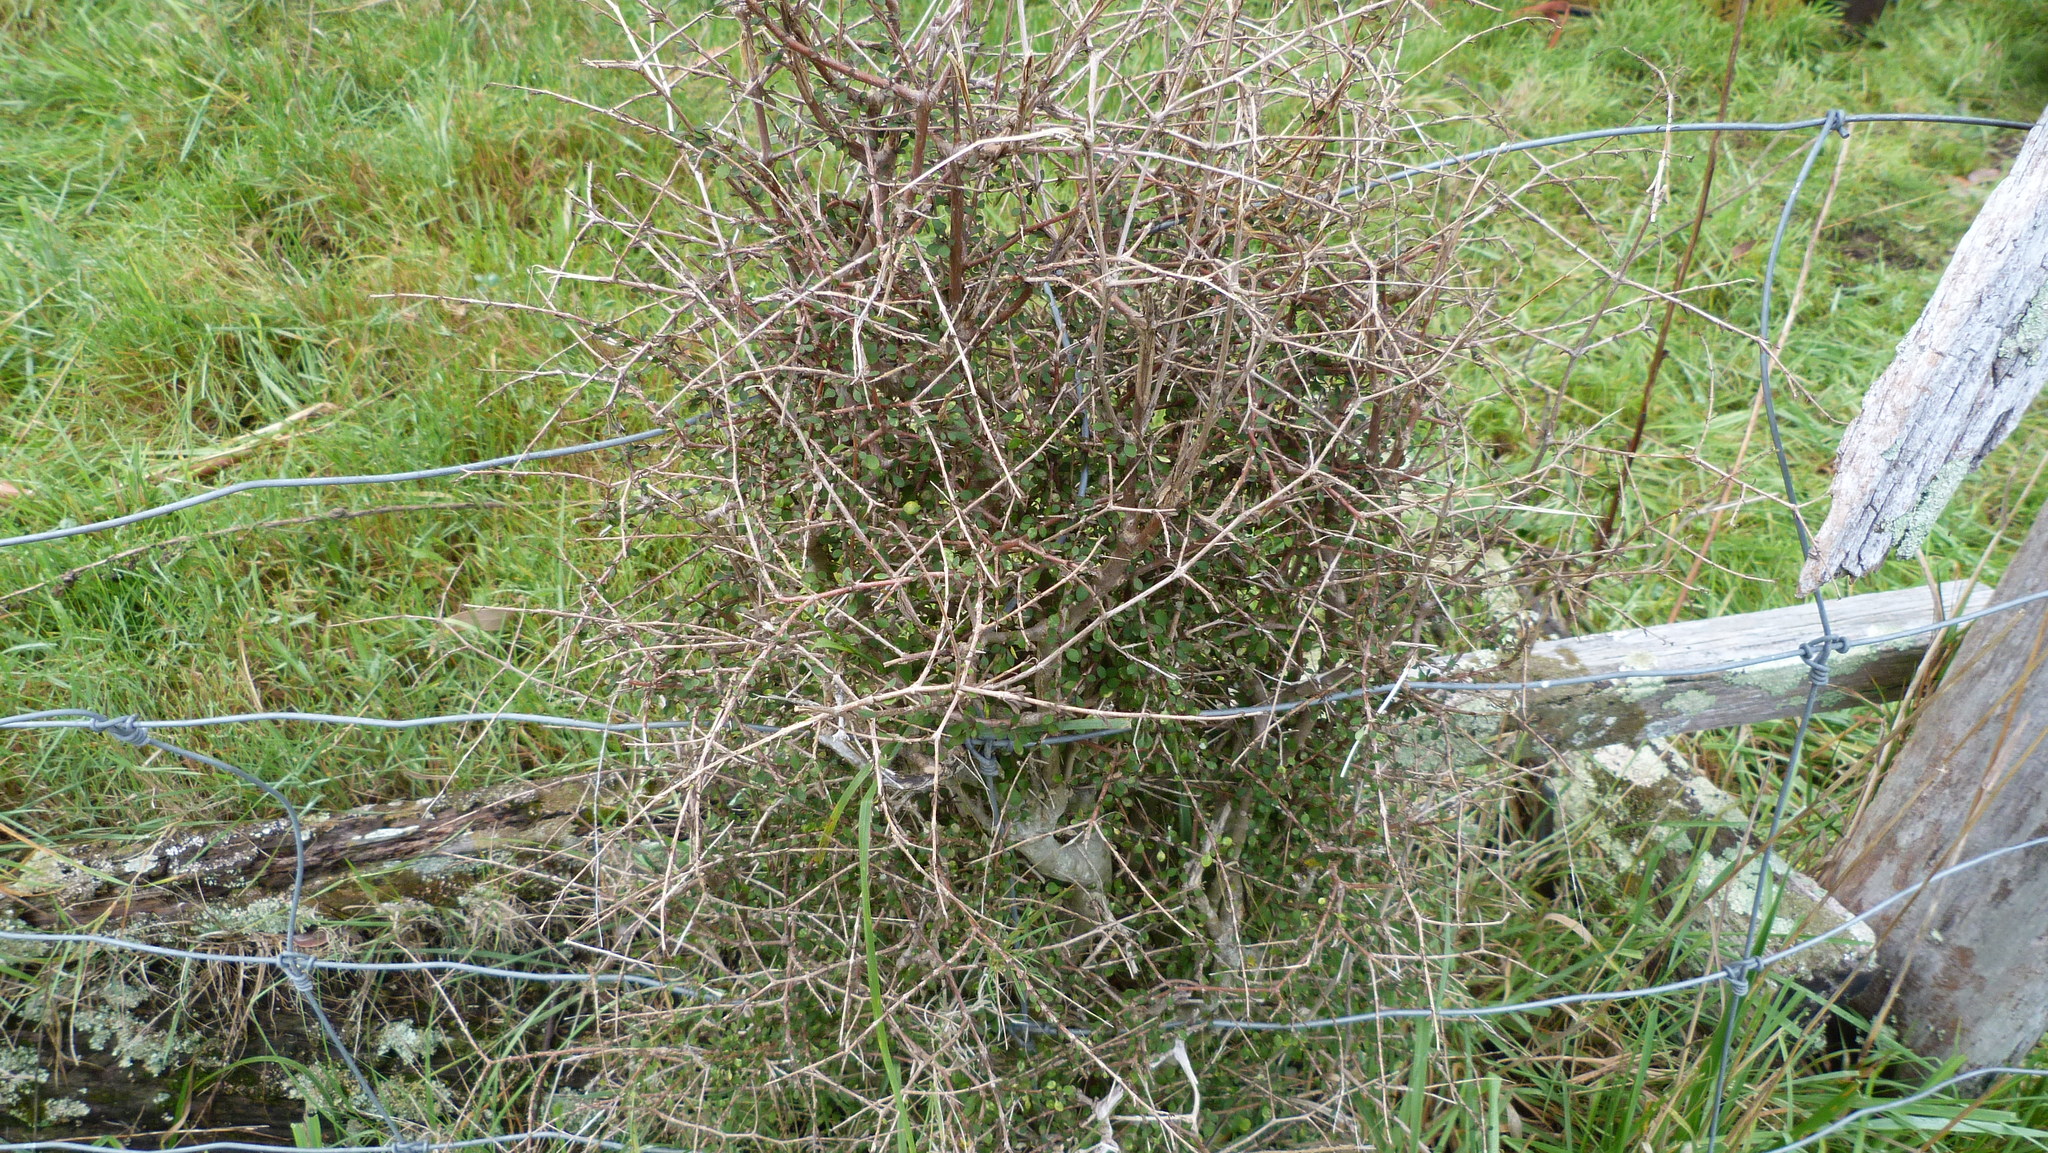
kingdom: Plantae
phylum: Tracheophyta
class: Magnoliopsida
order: Gentianales
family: Rubiaceae
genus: Coprosma
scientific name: Coprosma virescens
